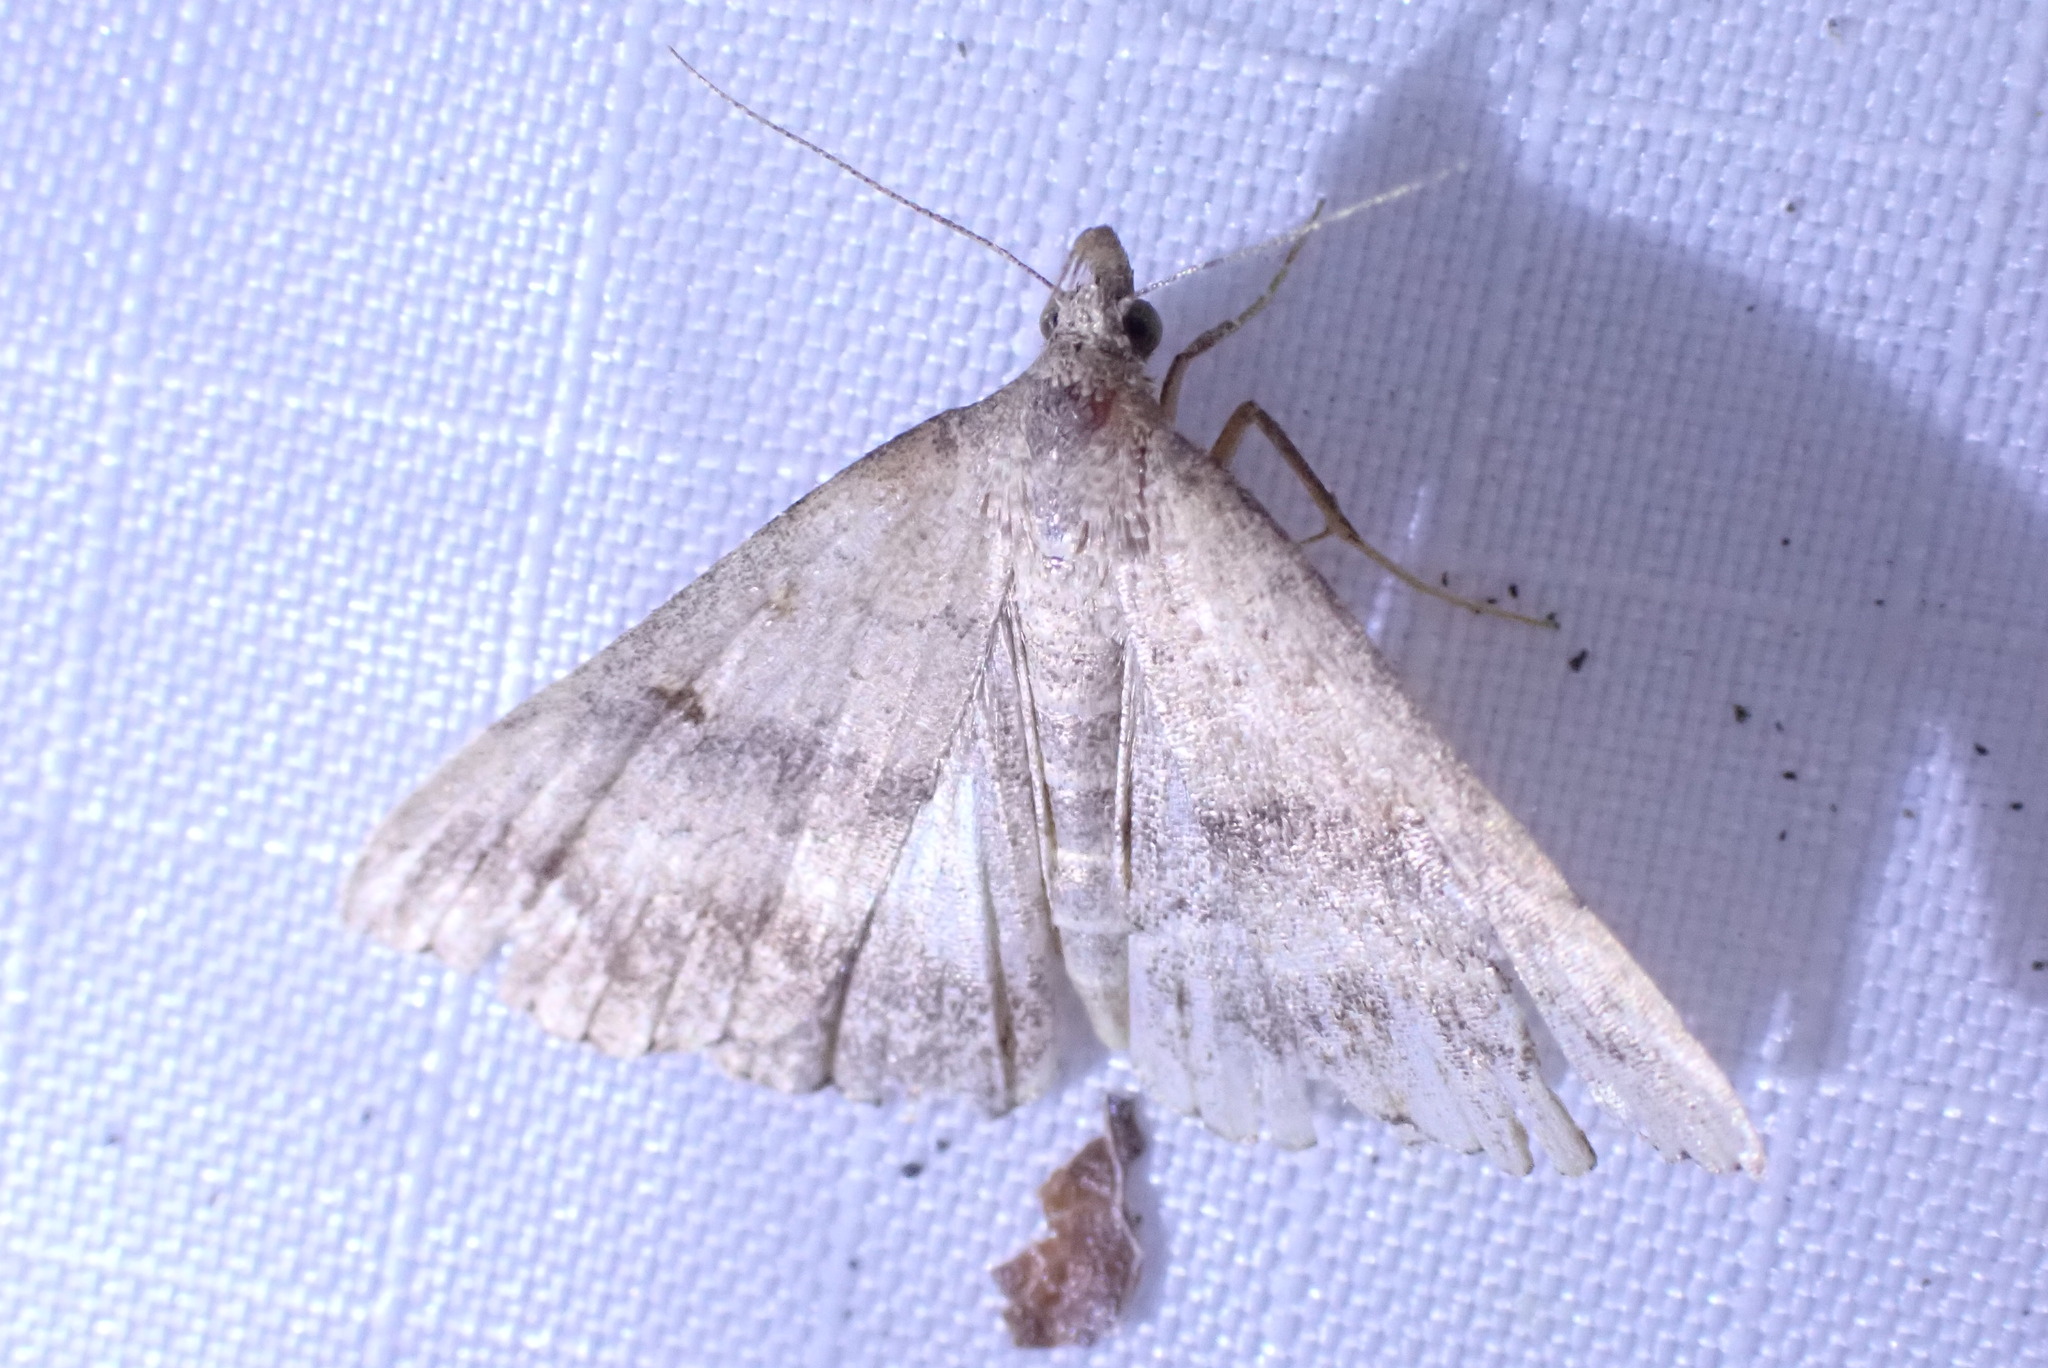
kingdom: Animalia
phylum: Arthropoda
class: Insecta
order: Lepidoptera
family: Erebidae
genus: Tetanolita
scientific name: Tetanolita palligera
